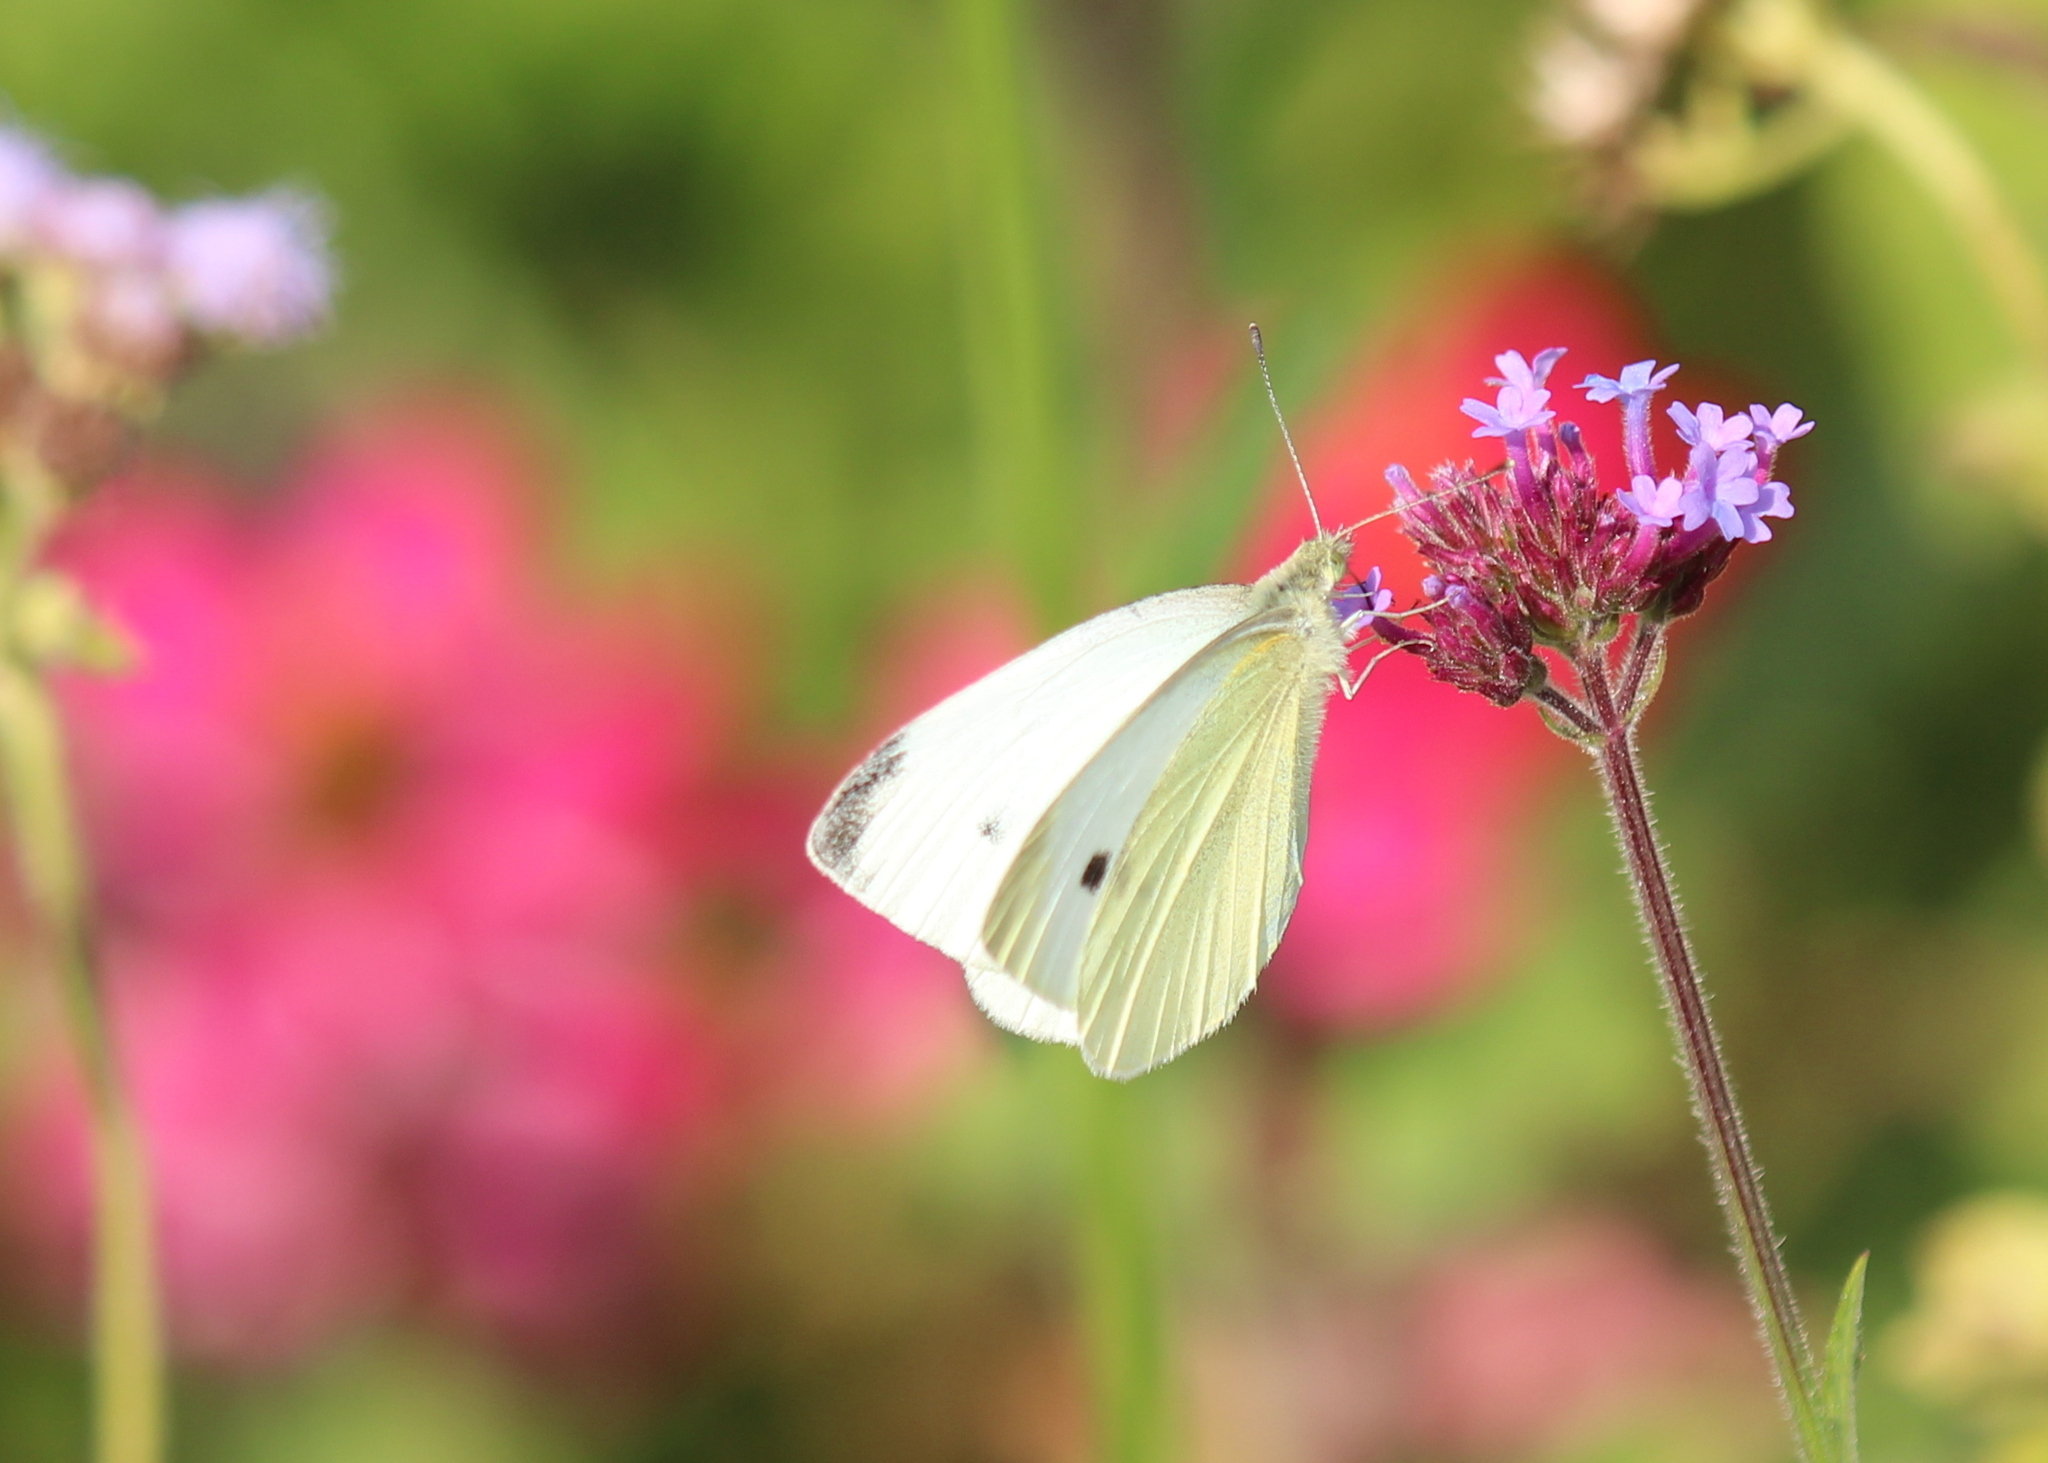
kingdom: Animalia
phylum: Arthropoda
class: Insecta
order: Lepidoptera
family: Pieridae
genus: Pieris
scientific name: Pieris rapae
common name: Small white
